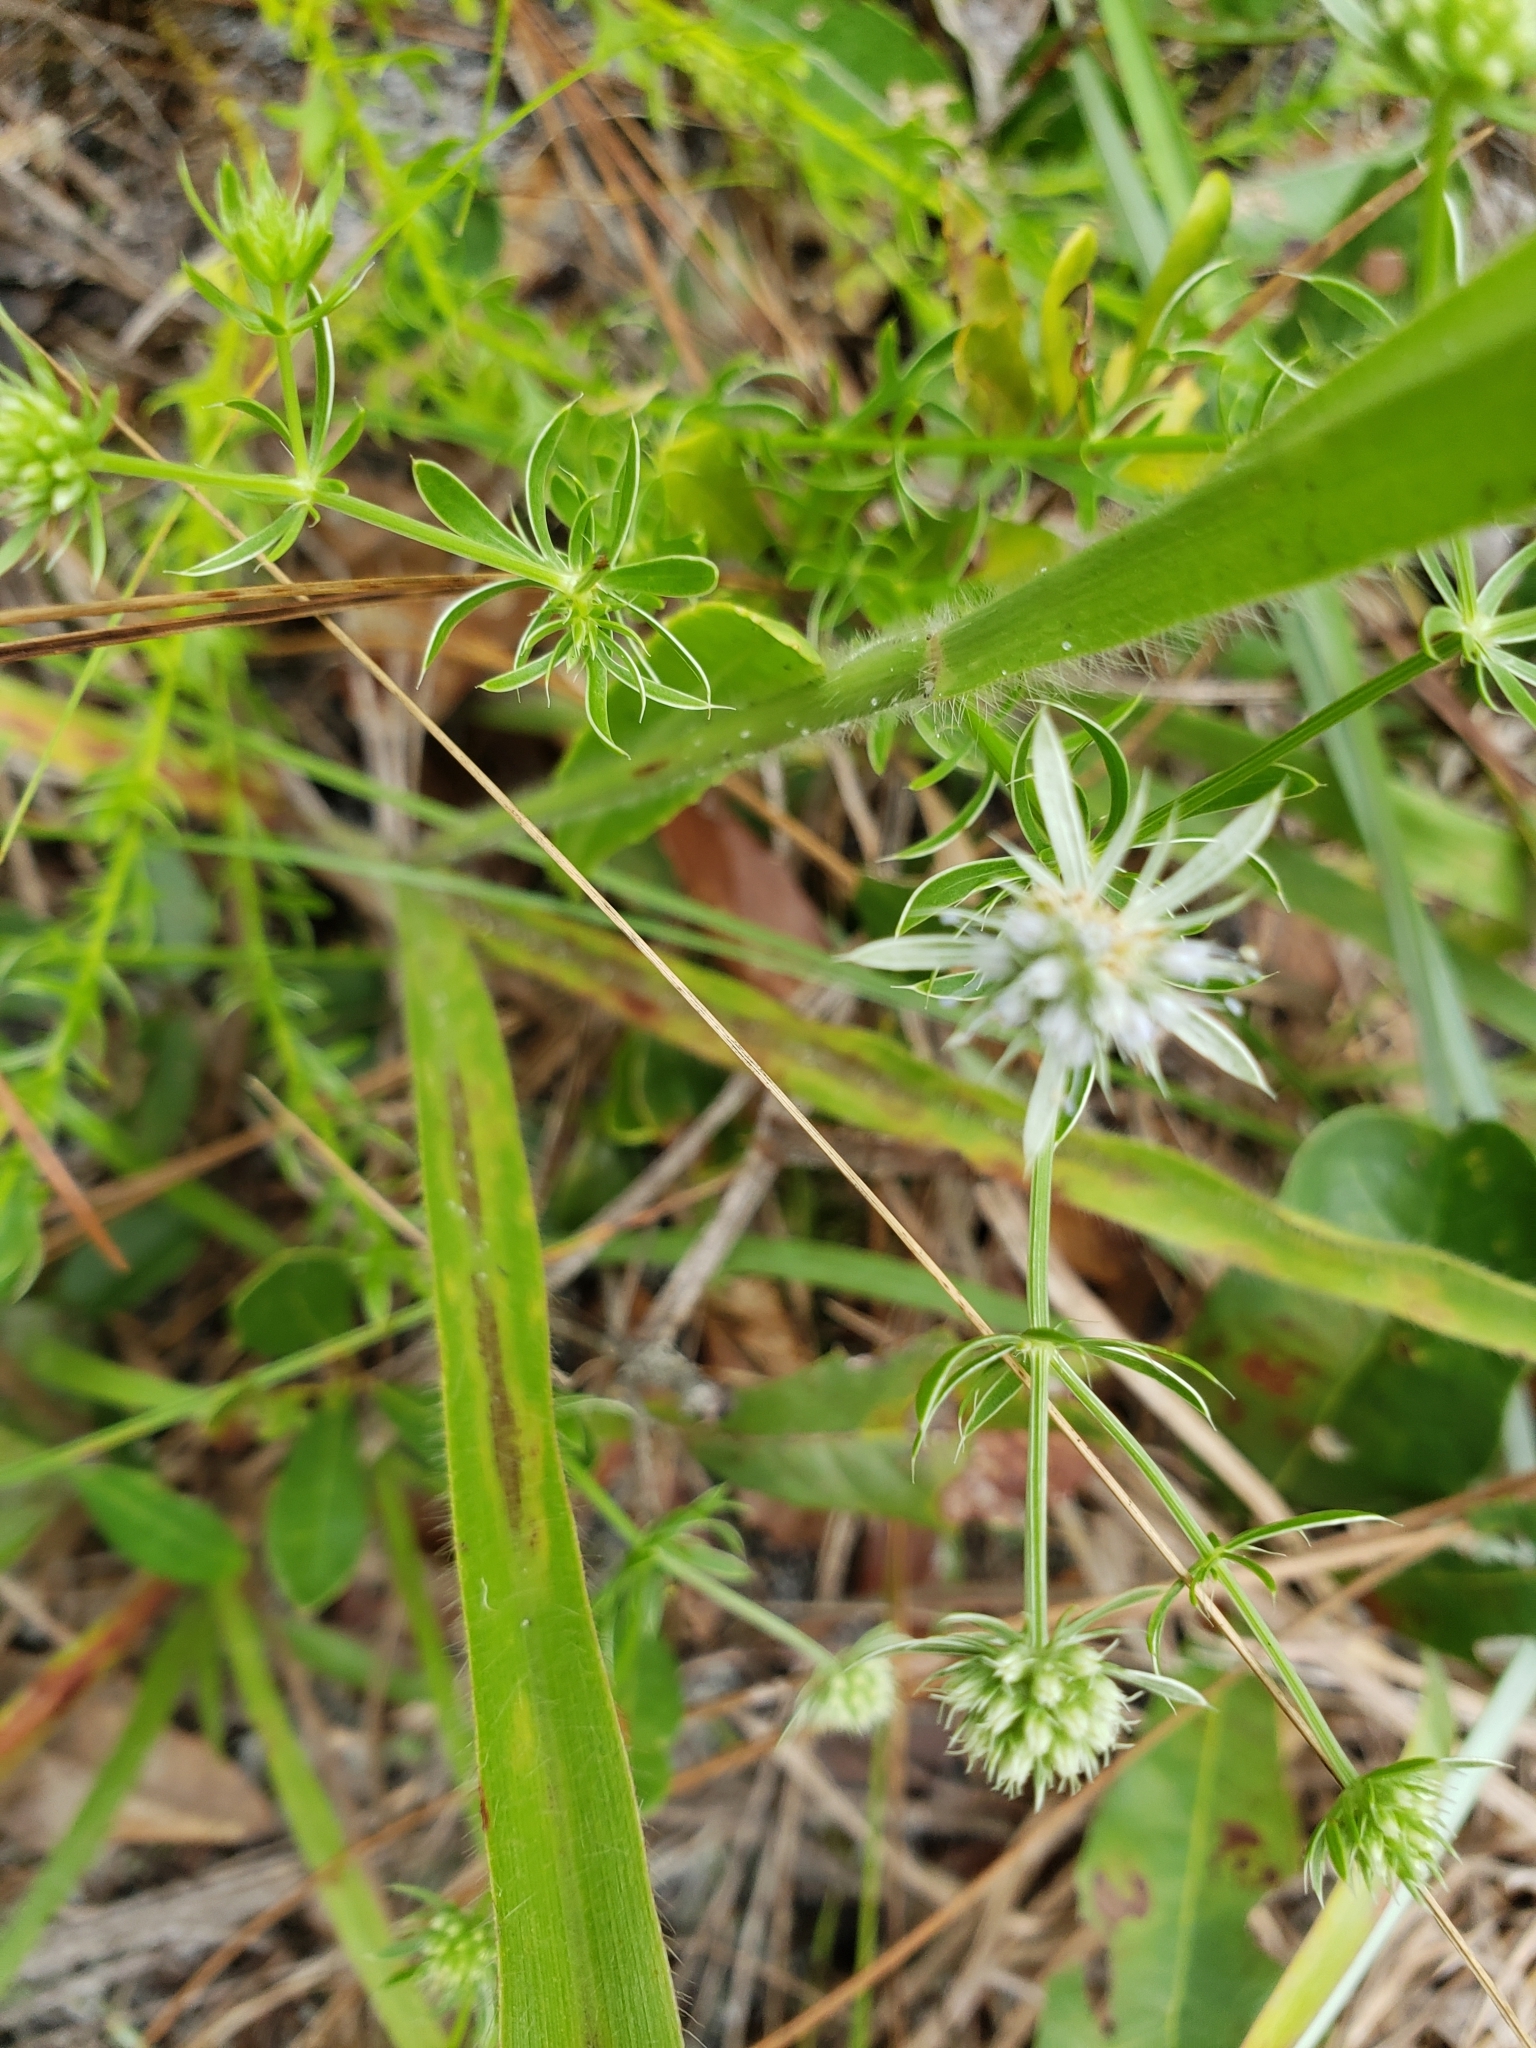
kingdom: Plantae
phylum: Tracheophyta
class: Magnoliopsida
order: Apiales
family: Apiaceae
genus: Eryngium
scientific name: Eryngium aromaticum
